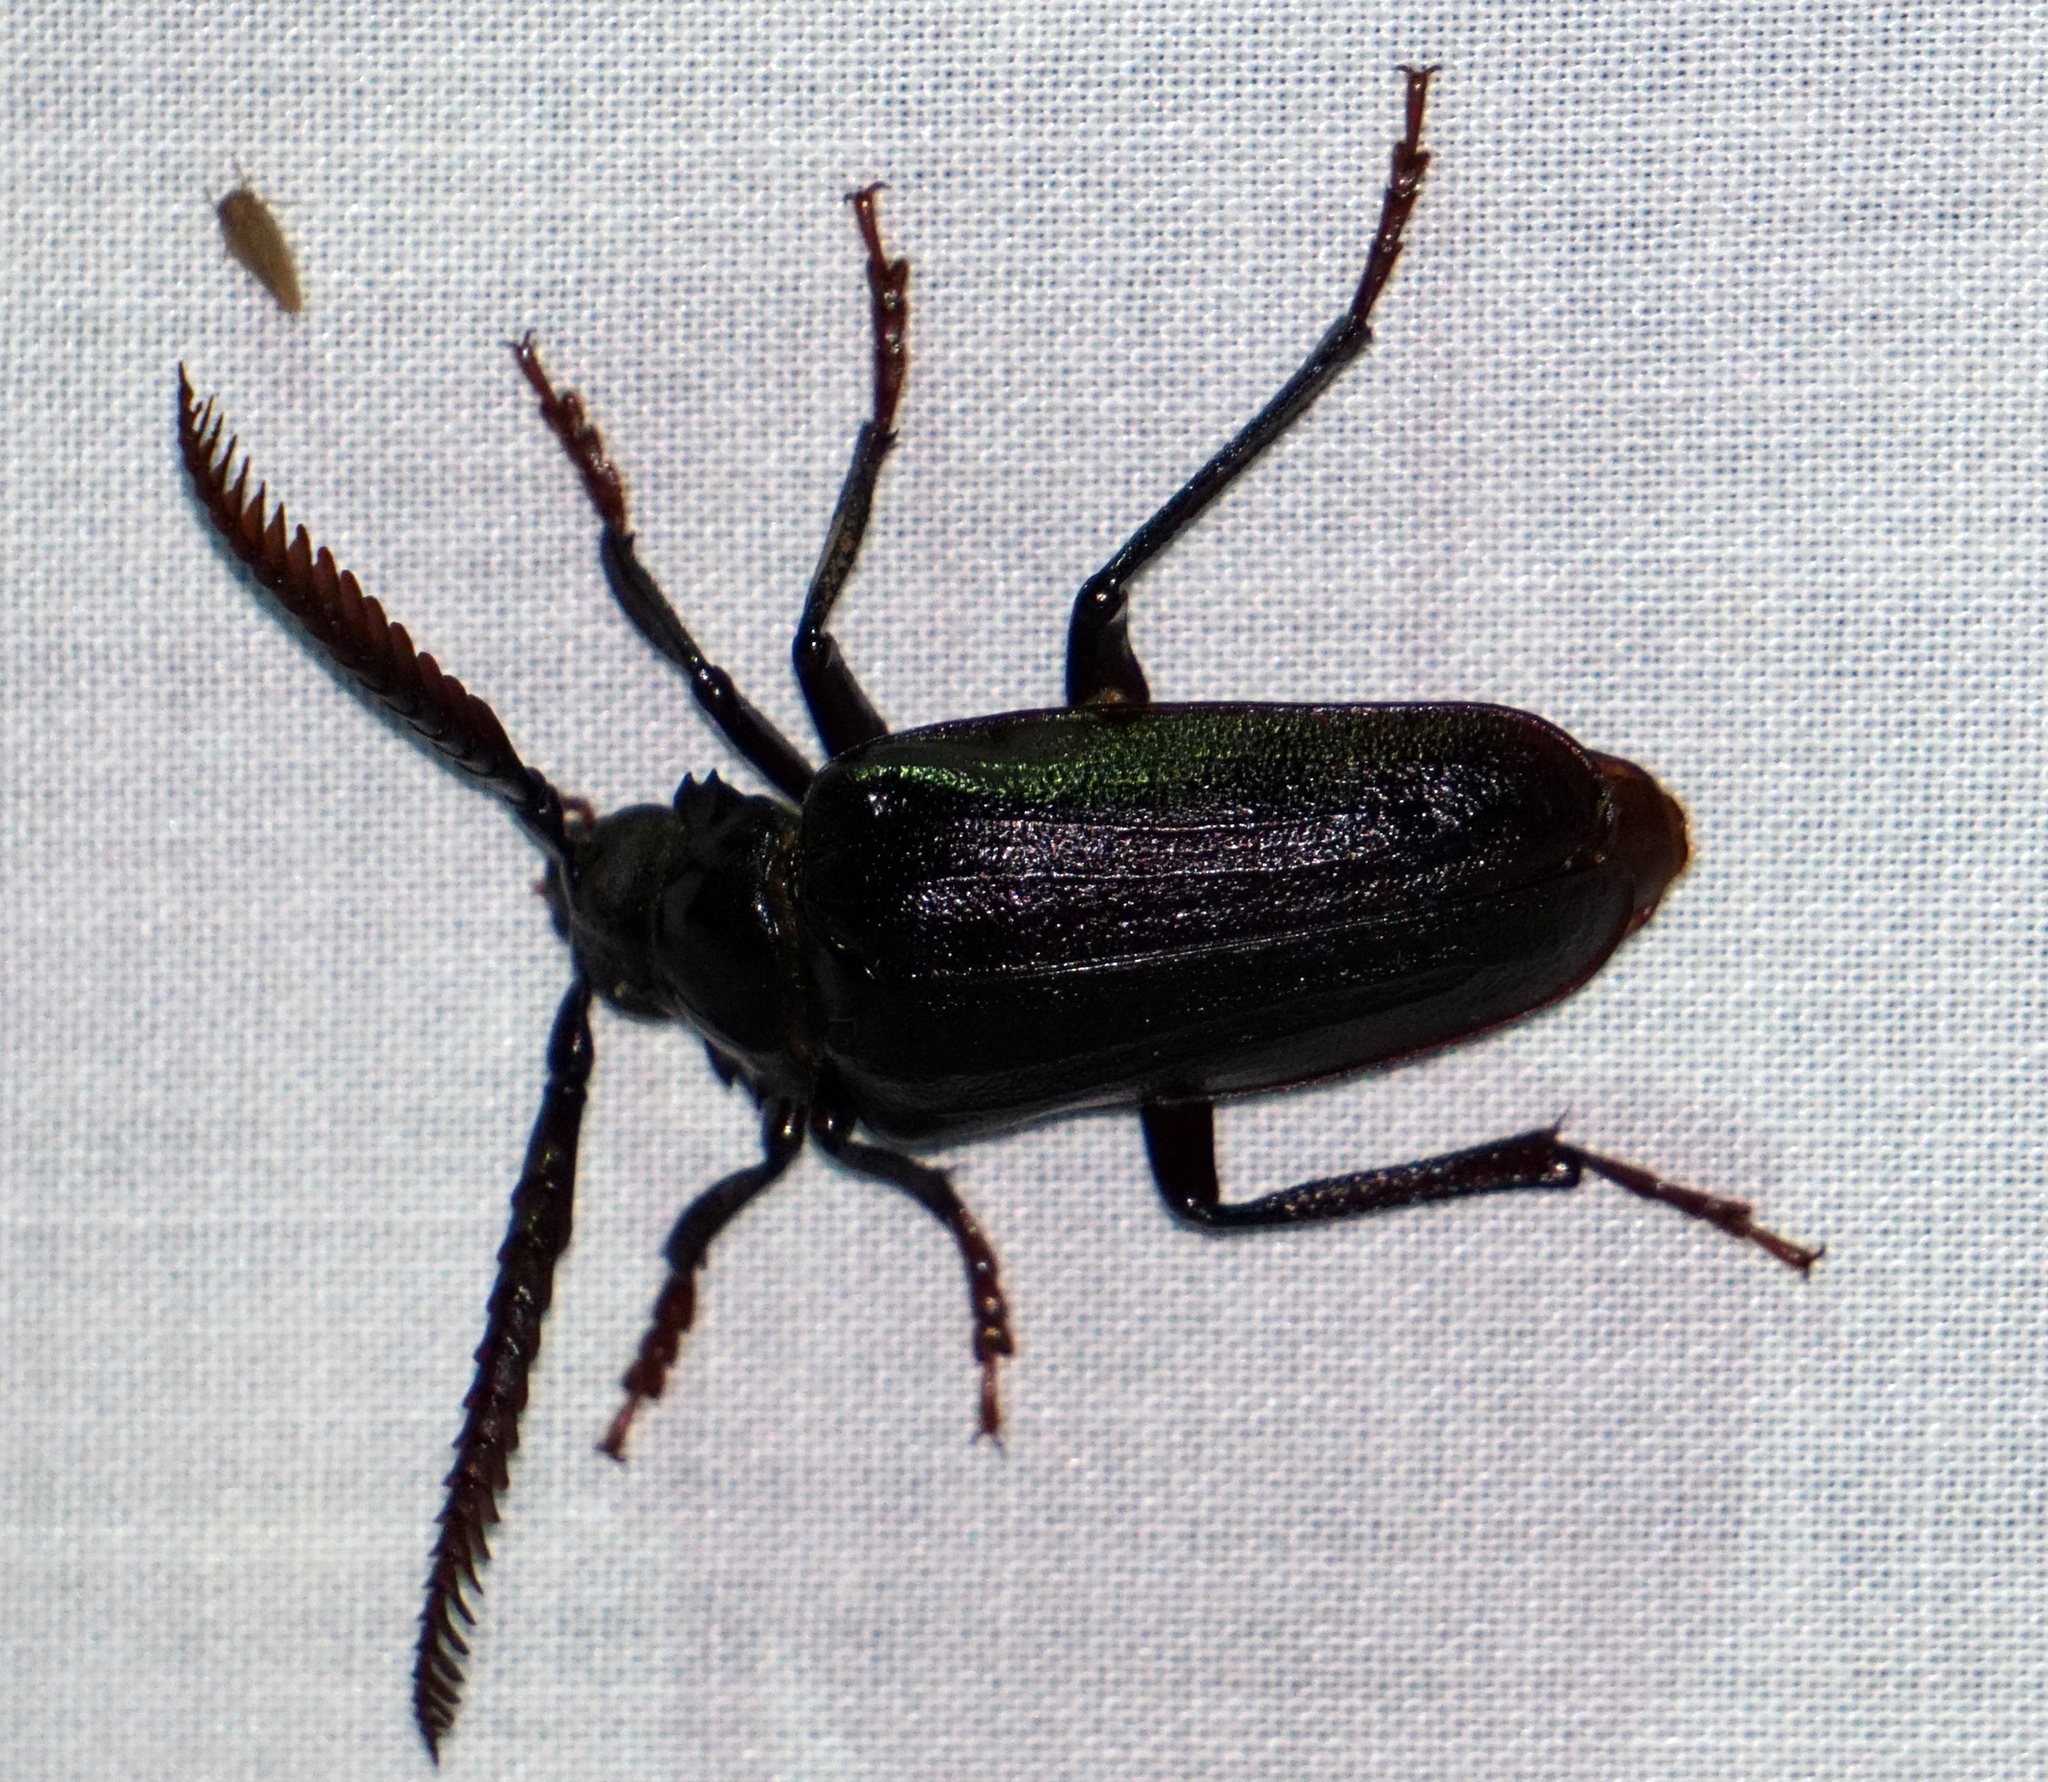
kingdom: Animalia
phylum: Arthropoda
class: Insecta
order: Coleoptera
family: Cerambycidae
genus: Prionus
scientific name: Prionus imbricornis
